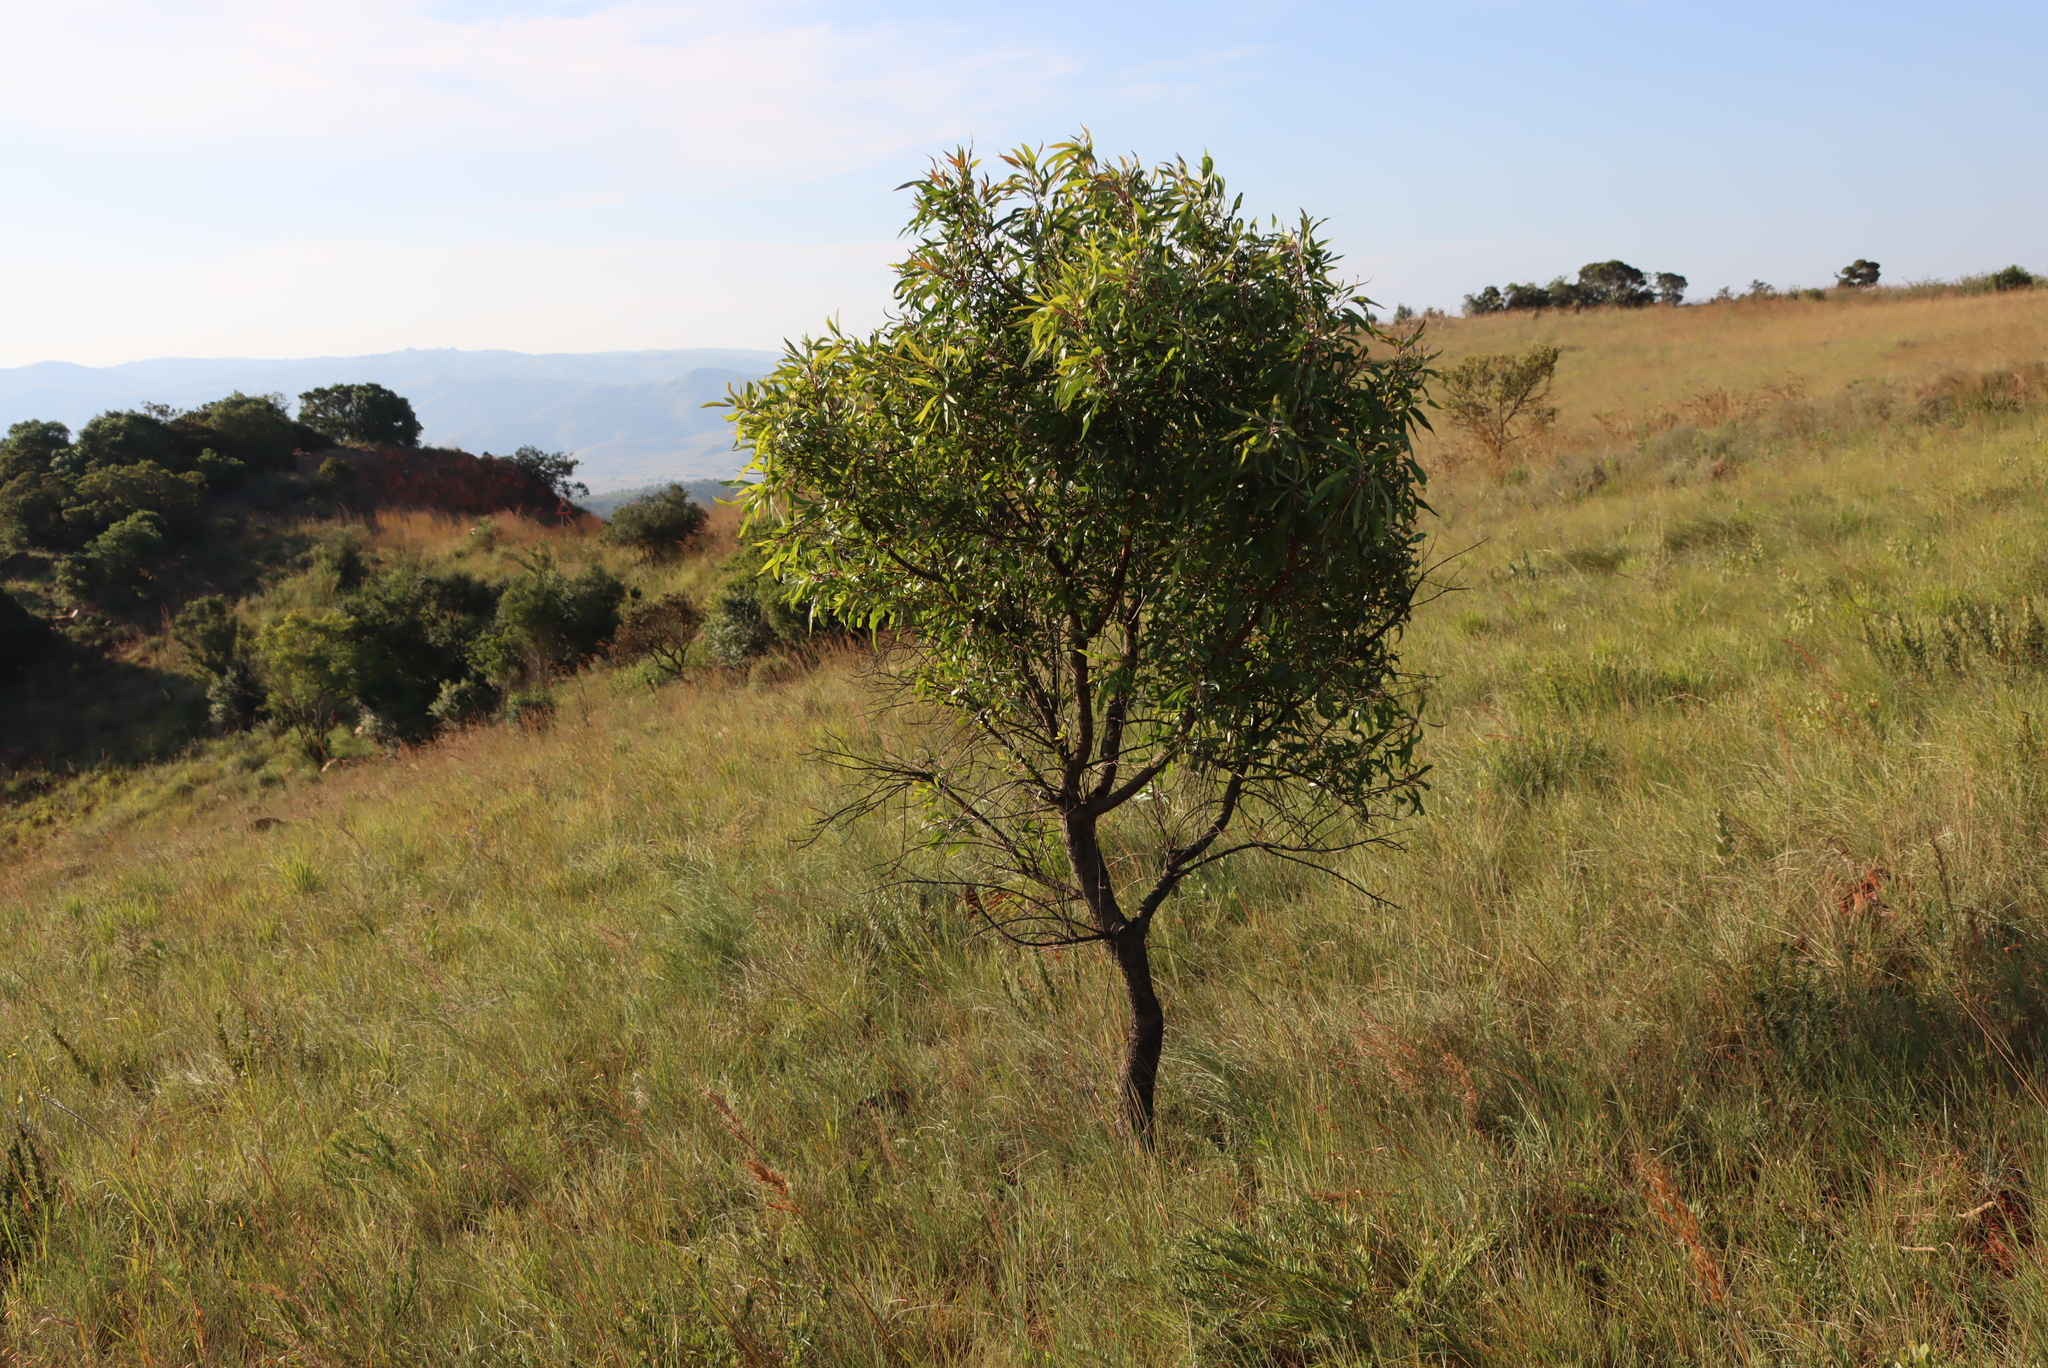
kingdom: Plantae
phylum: Tracheophyta
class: Magnoliopsida
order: Proteales
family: Proteaceae
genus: Faurea
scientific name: Faurea saligna
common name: African bean
